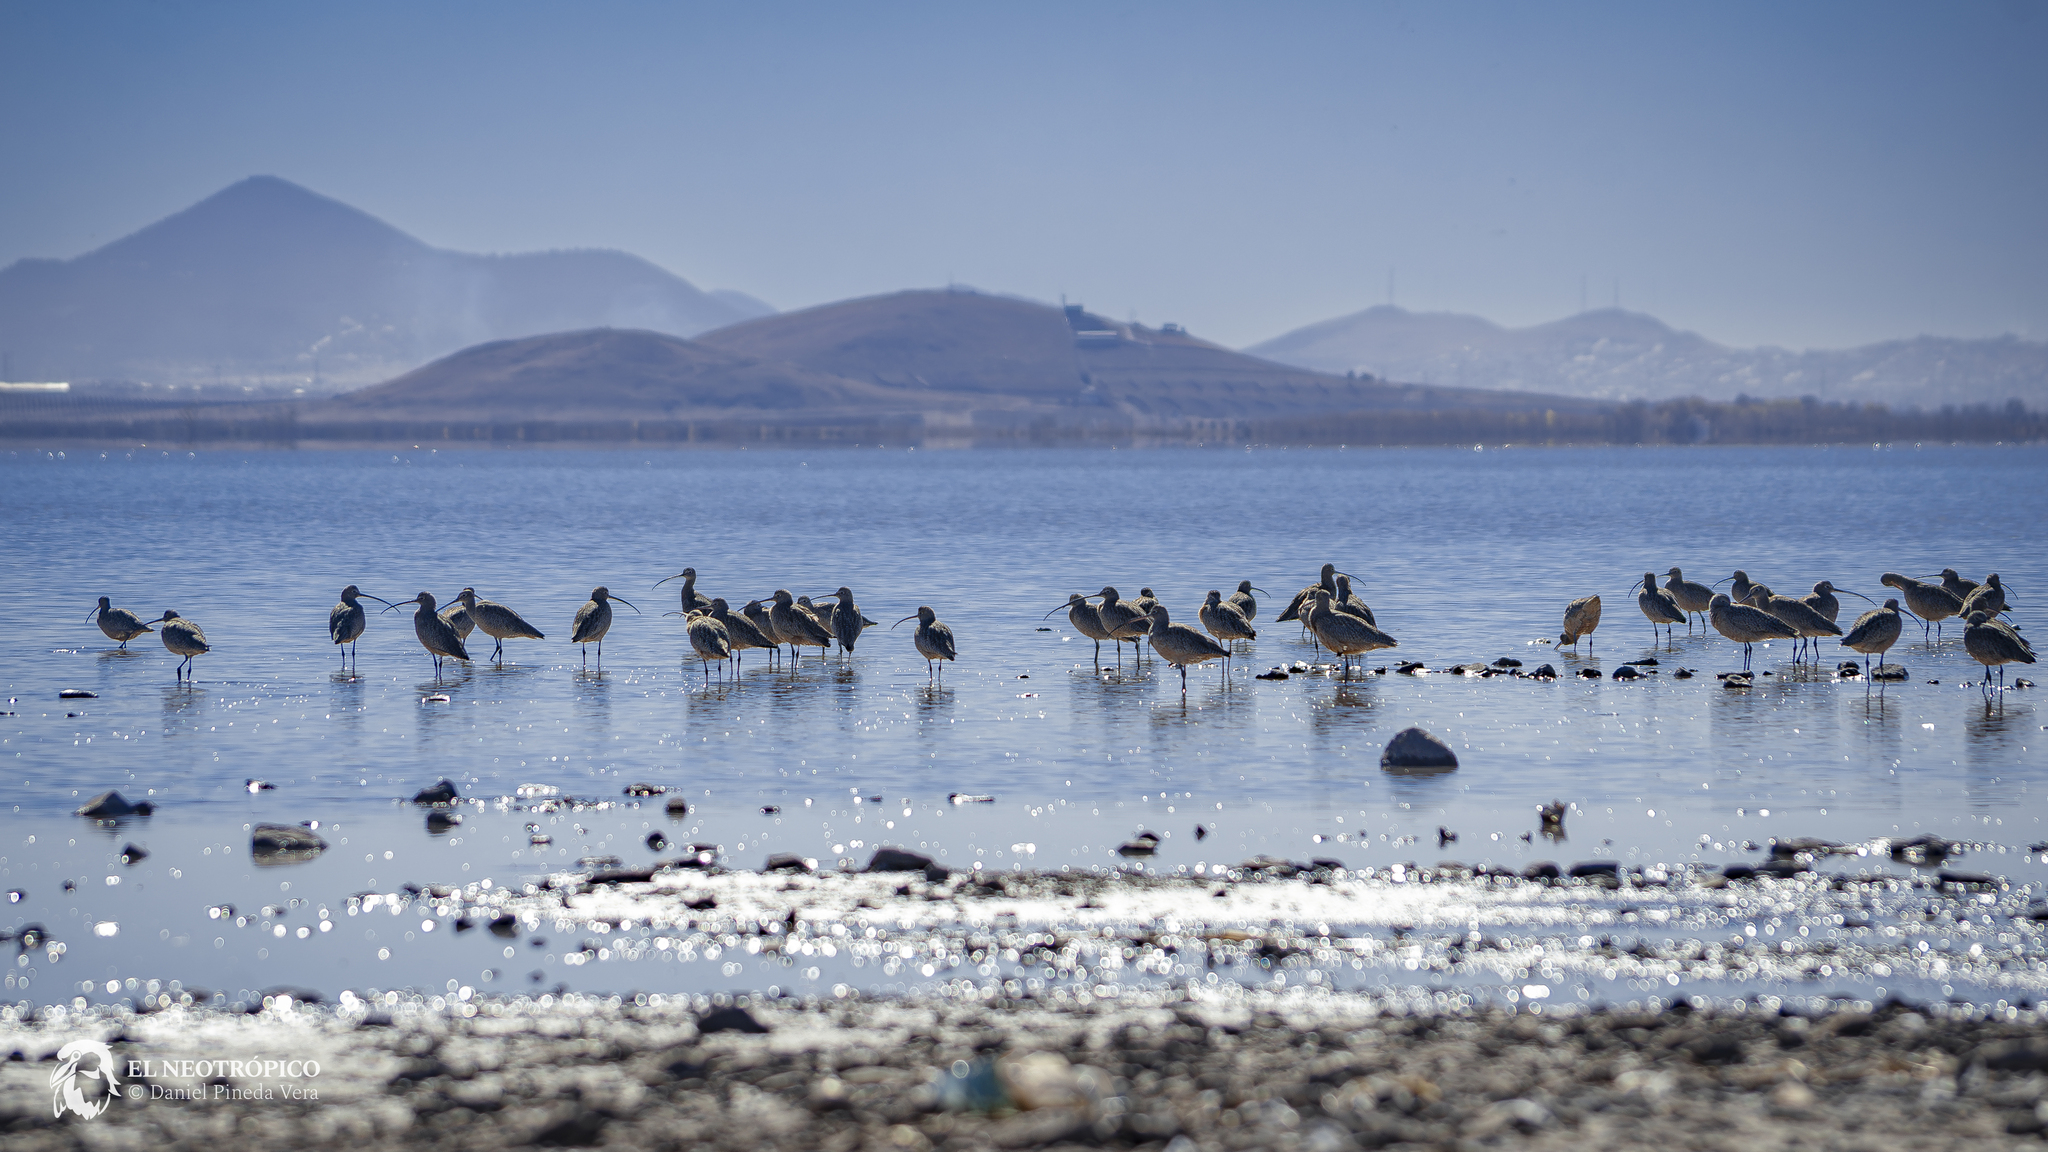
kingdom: Animalia
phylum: Chordata
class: Aves
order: Charadriiformes
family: Scolopacidae
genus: Numenius
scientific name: Numenius americanus
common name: Long-billed curlew
